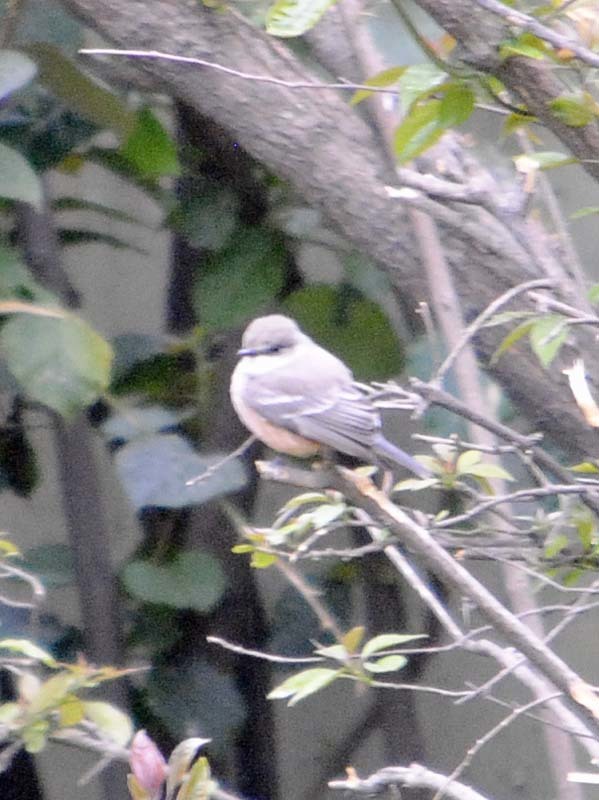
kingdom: Animalia
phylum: Chordata
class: Aves
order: Passeriformes
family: Tyrannidae
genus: Pyrocephalus
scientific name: Pyrocephalus rubinus
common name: Vermilion flycatcher
